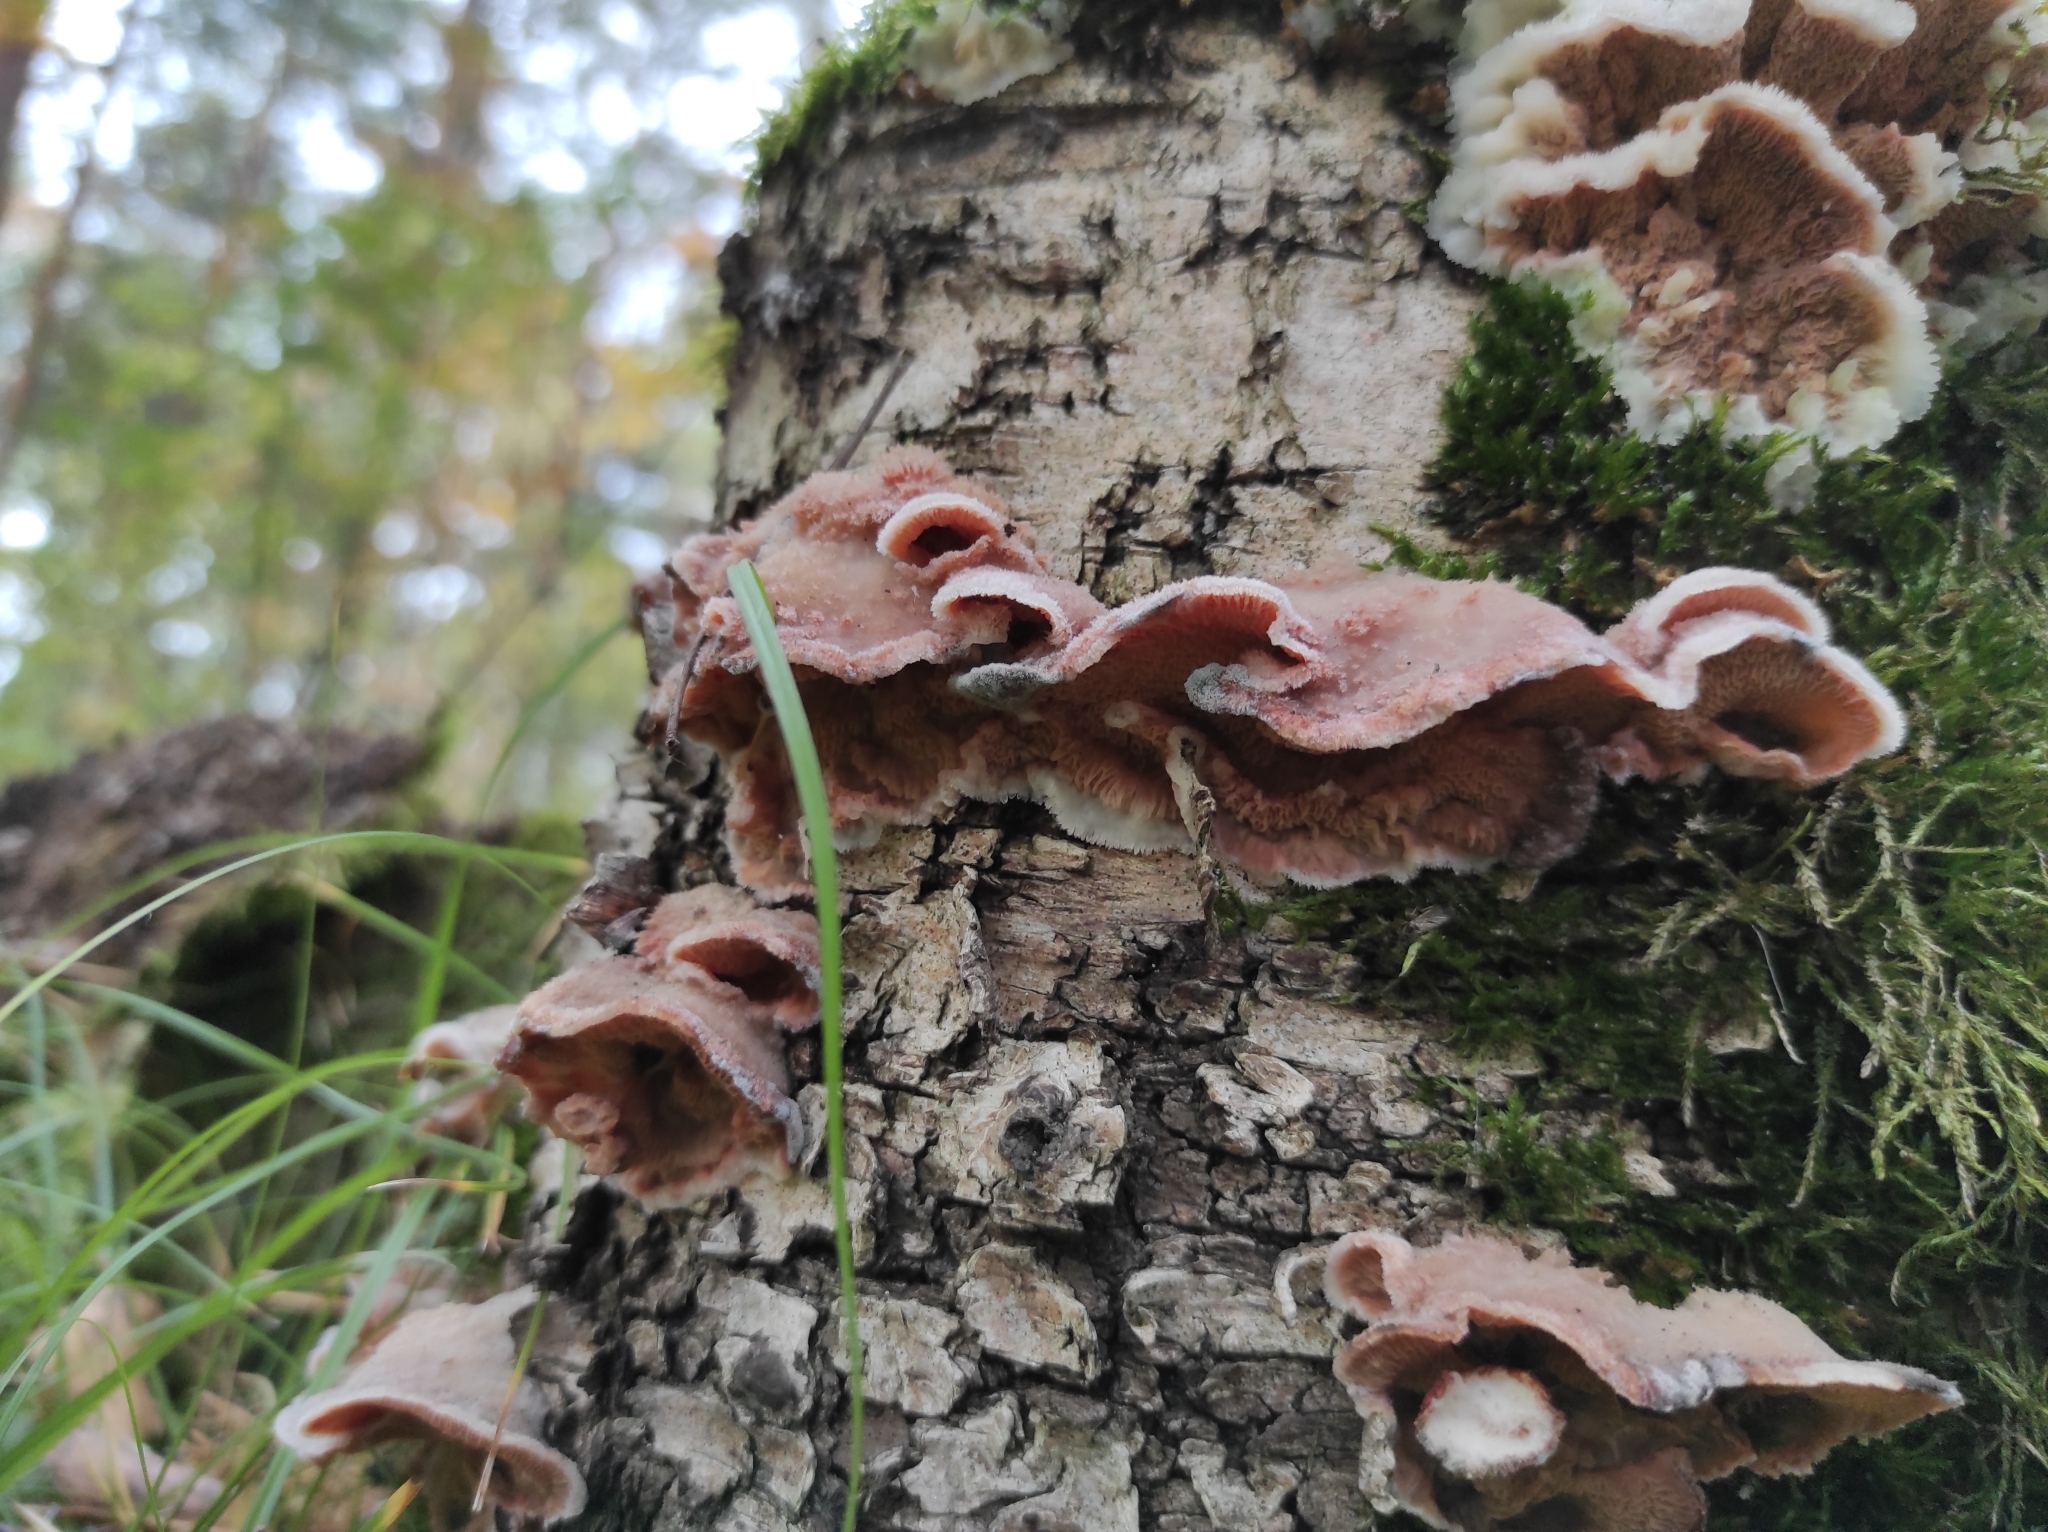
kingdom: Fungi
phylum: Basidiomycota
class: Agaricomycetes
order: Polyporales
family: Meruliaceae
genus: Phlebia
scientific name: Phlebia tremellosa
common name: Jelly rot
